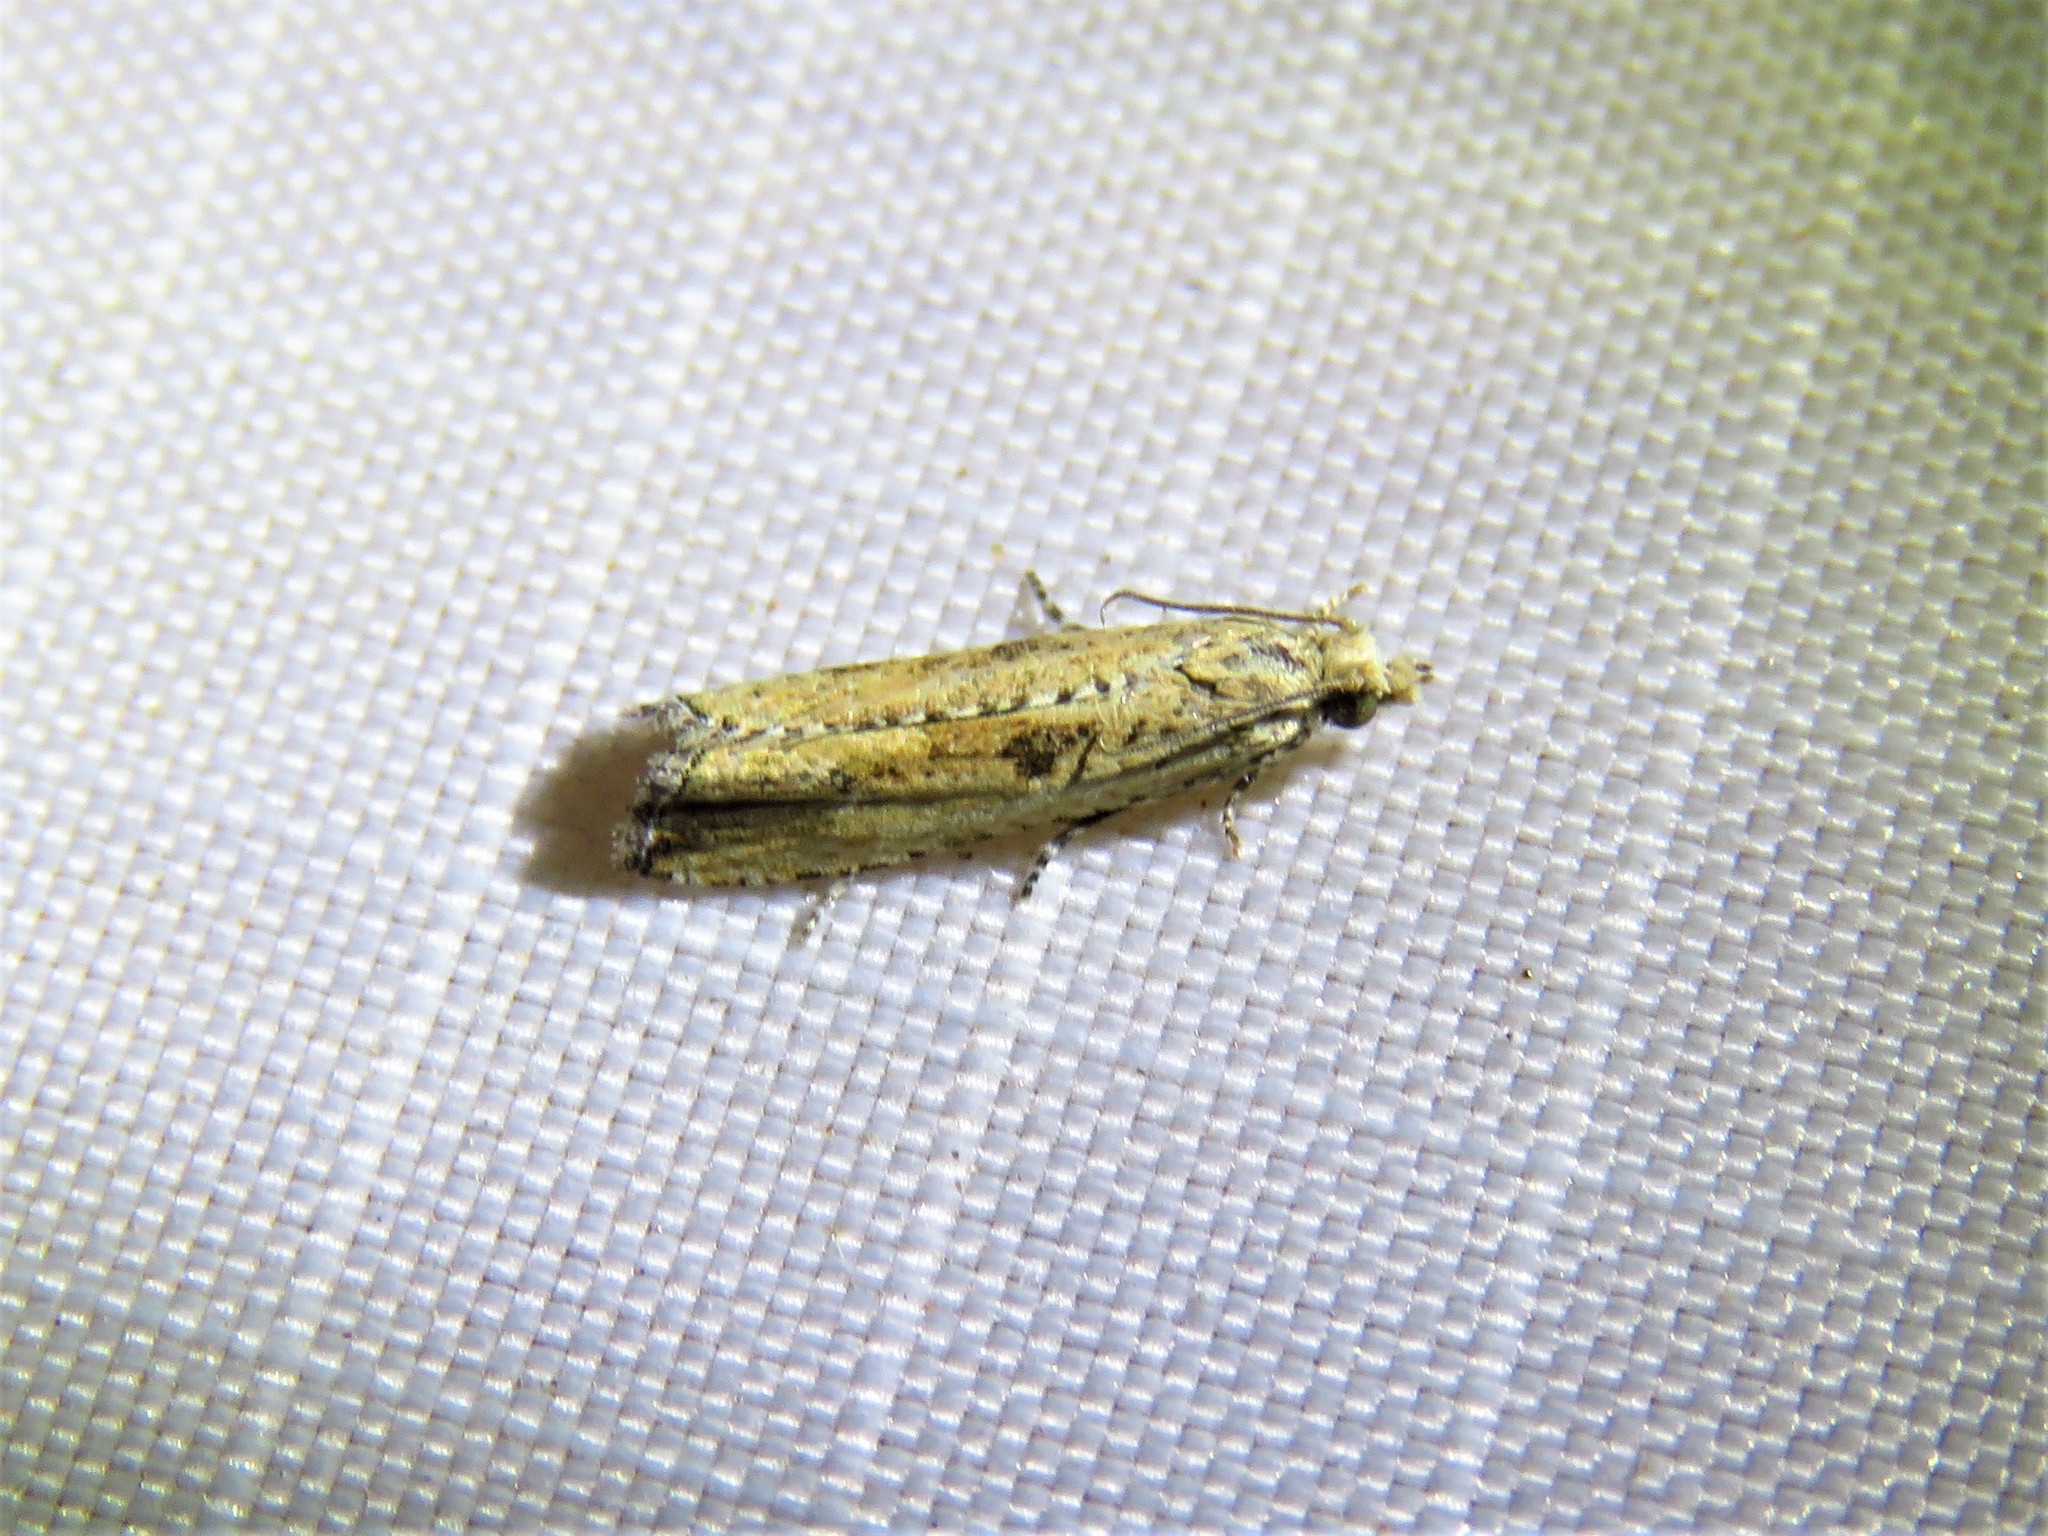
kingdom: Animalia
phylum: Arthropoda
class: Insecta
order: Lepidoptera
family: Tortricidae
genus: Bactra
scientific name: Bactra verutana
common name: Javelin moth
